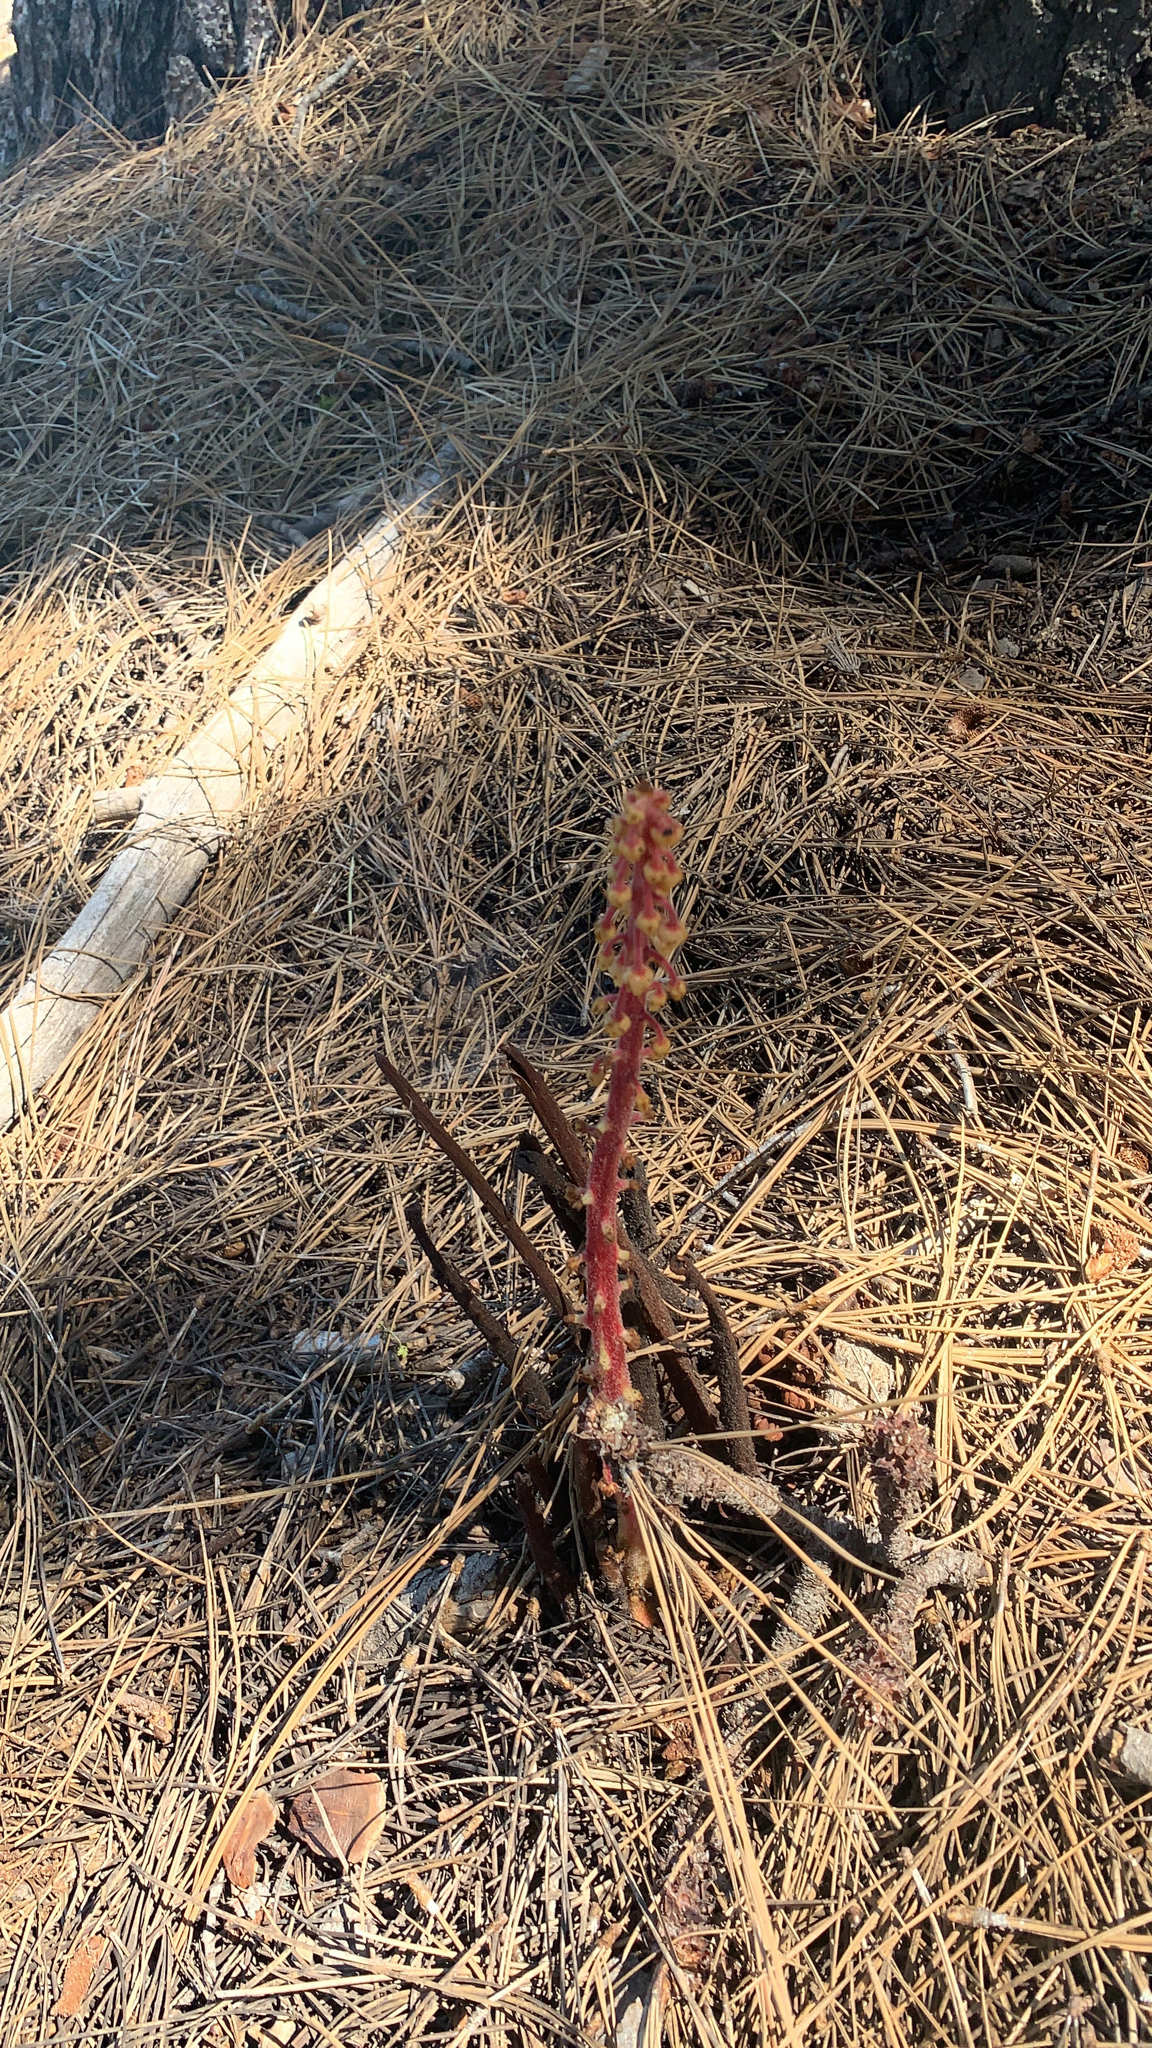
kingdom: Plantae
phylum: Tracheophyta
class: Magnoliopsida
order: Ericales
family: Ericaceae
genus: Pterospora
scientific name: Pterospora andromedea
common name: Giant bird's-nest
